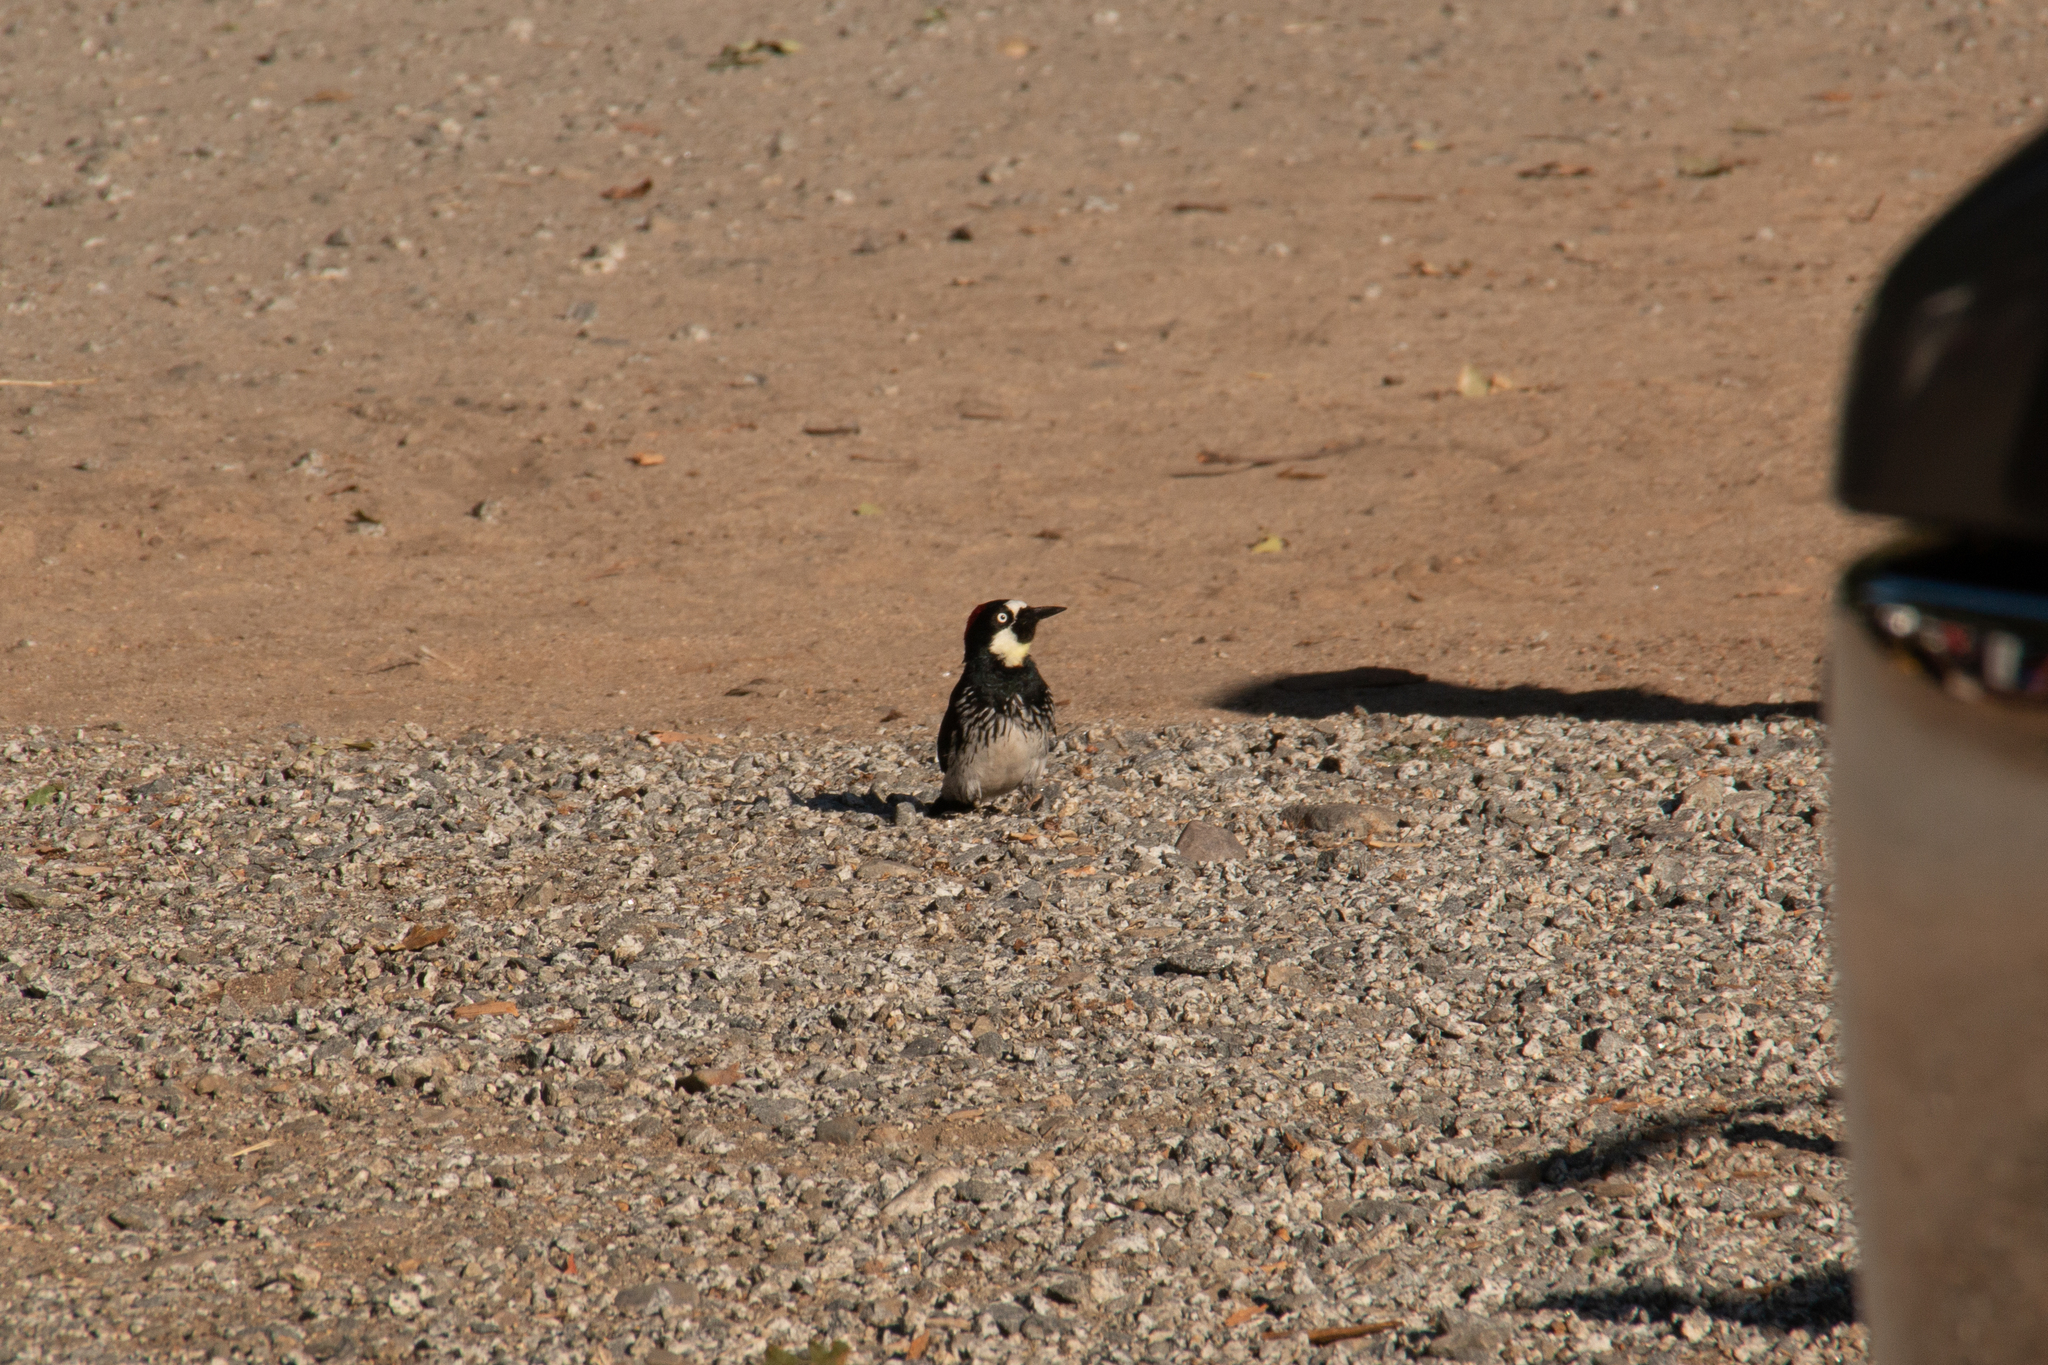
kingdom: Animalia
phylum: Chordata
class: Aves
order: Piciformes
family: Picidae
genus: Melanerpes
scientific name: Melanerpes formicivorus
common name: Acorn woodpecker
